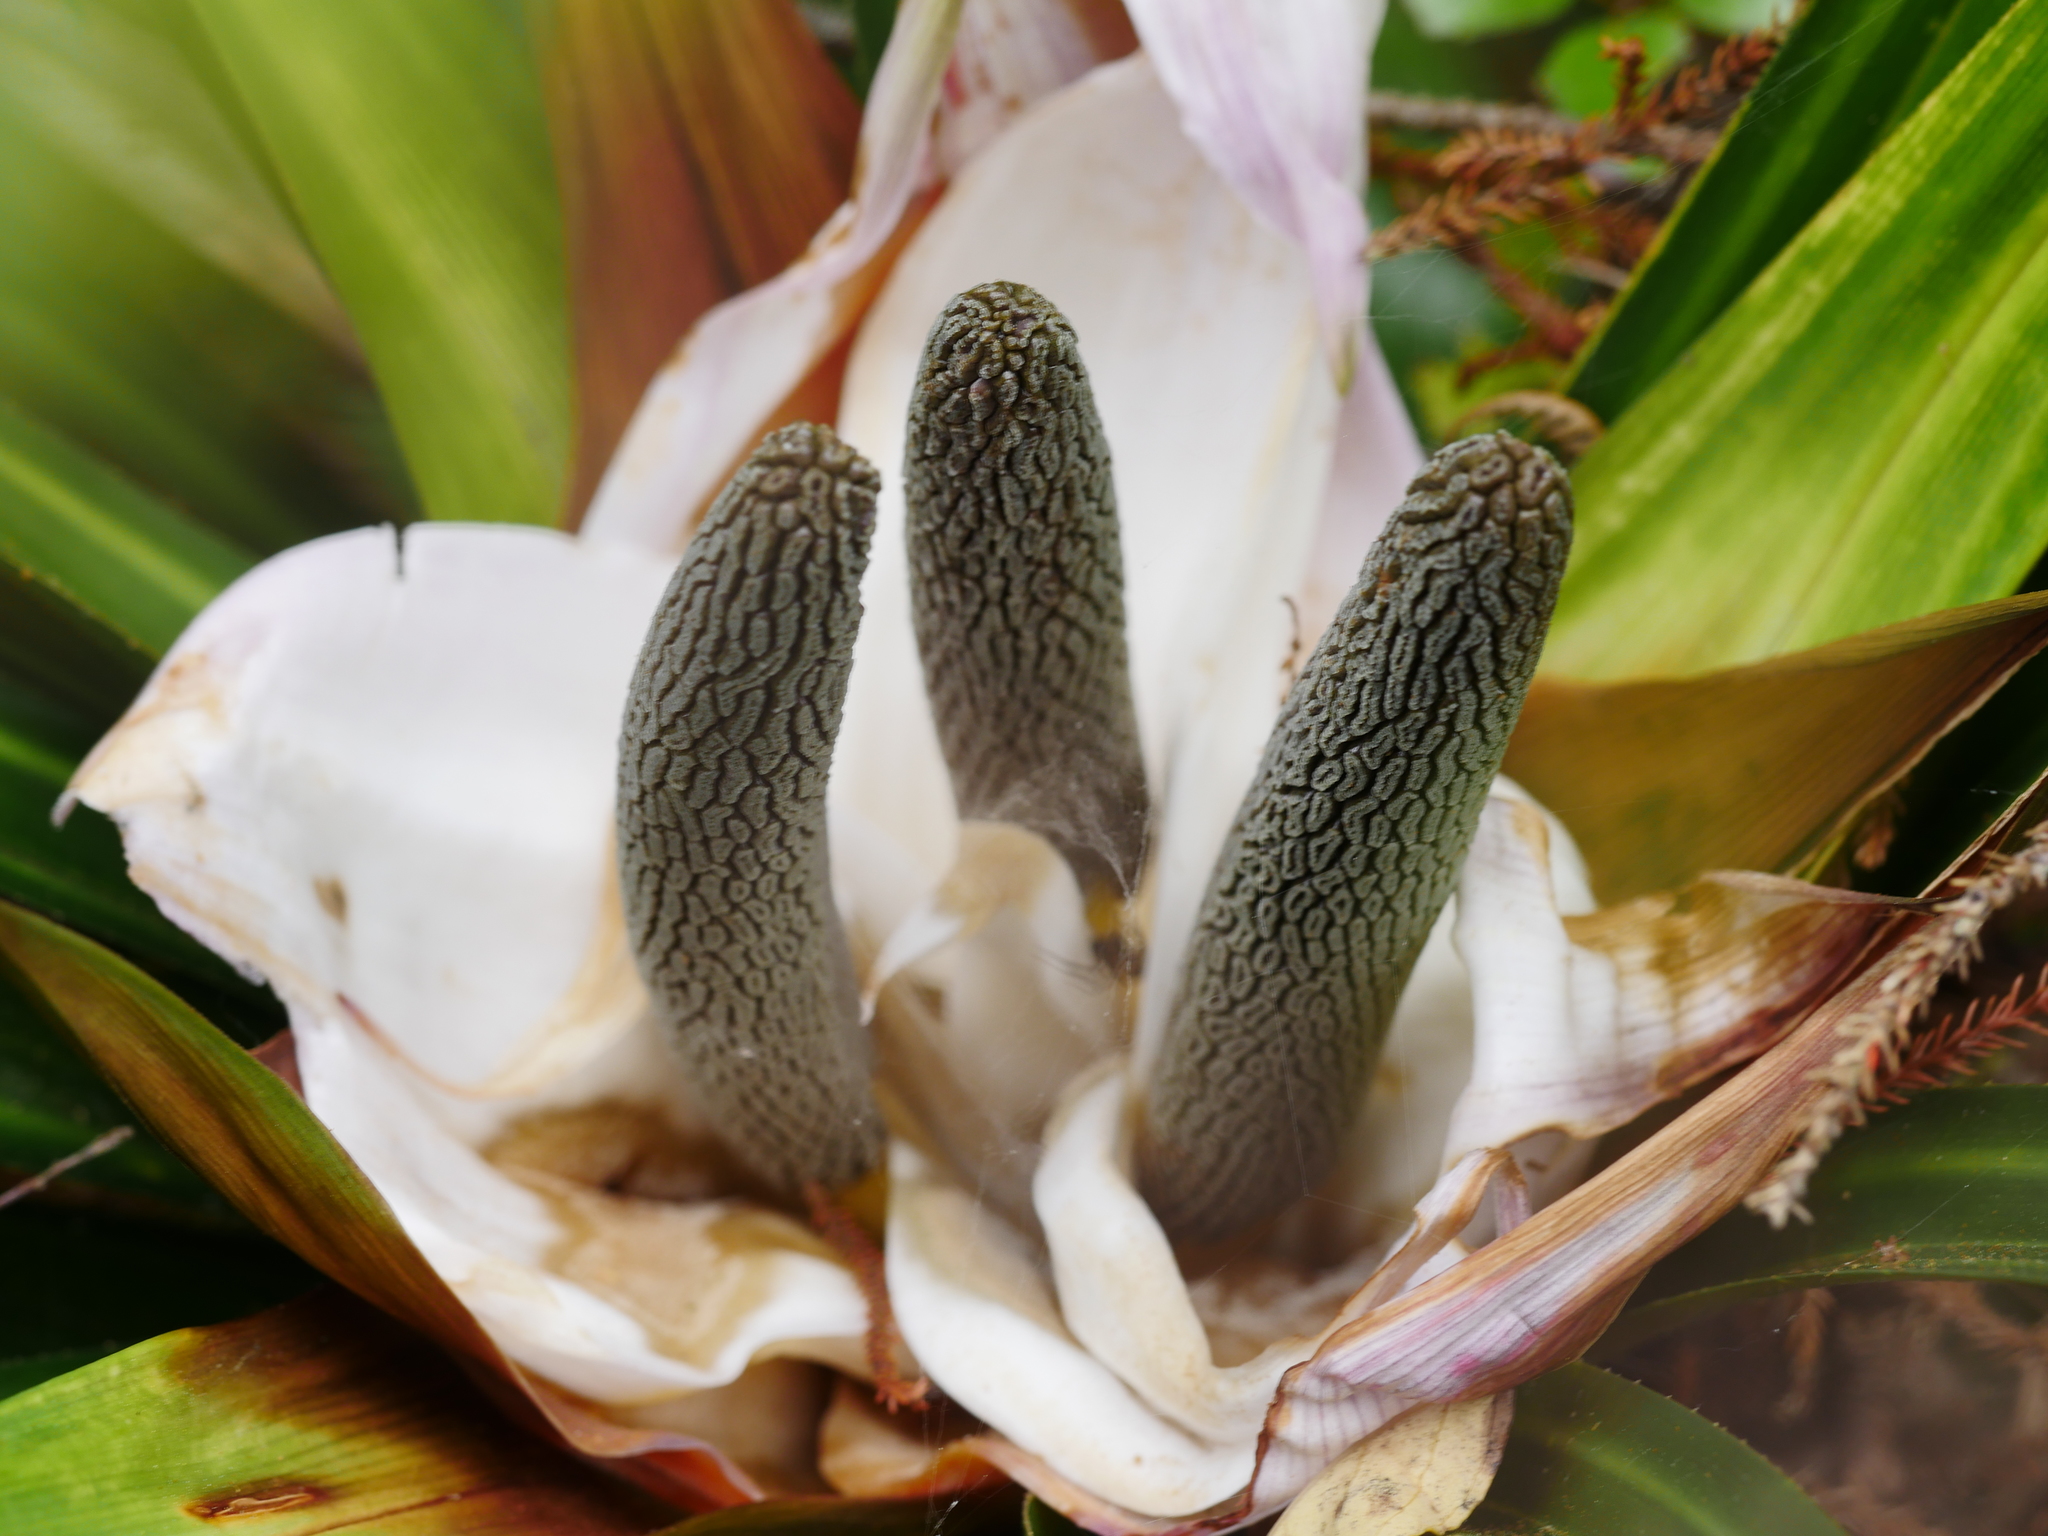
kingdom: Plantae
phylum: Tracheophyta
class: Liliopsida
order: Pandanales
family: Pandanaceae
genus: Freycinetia
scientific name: Freycinetia banksii
